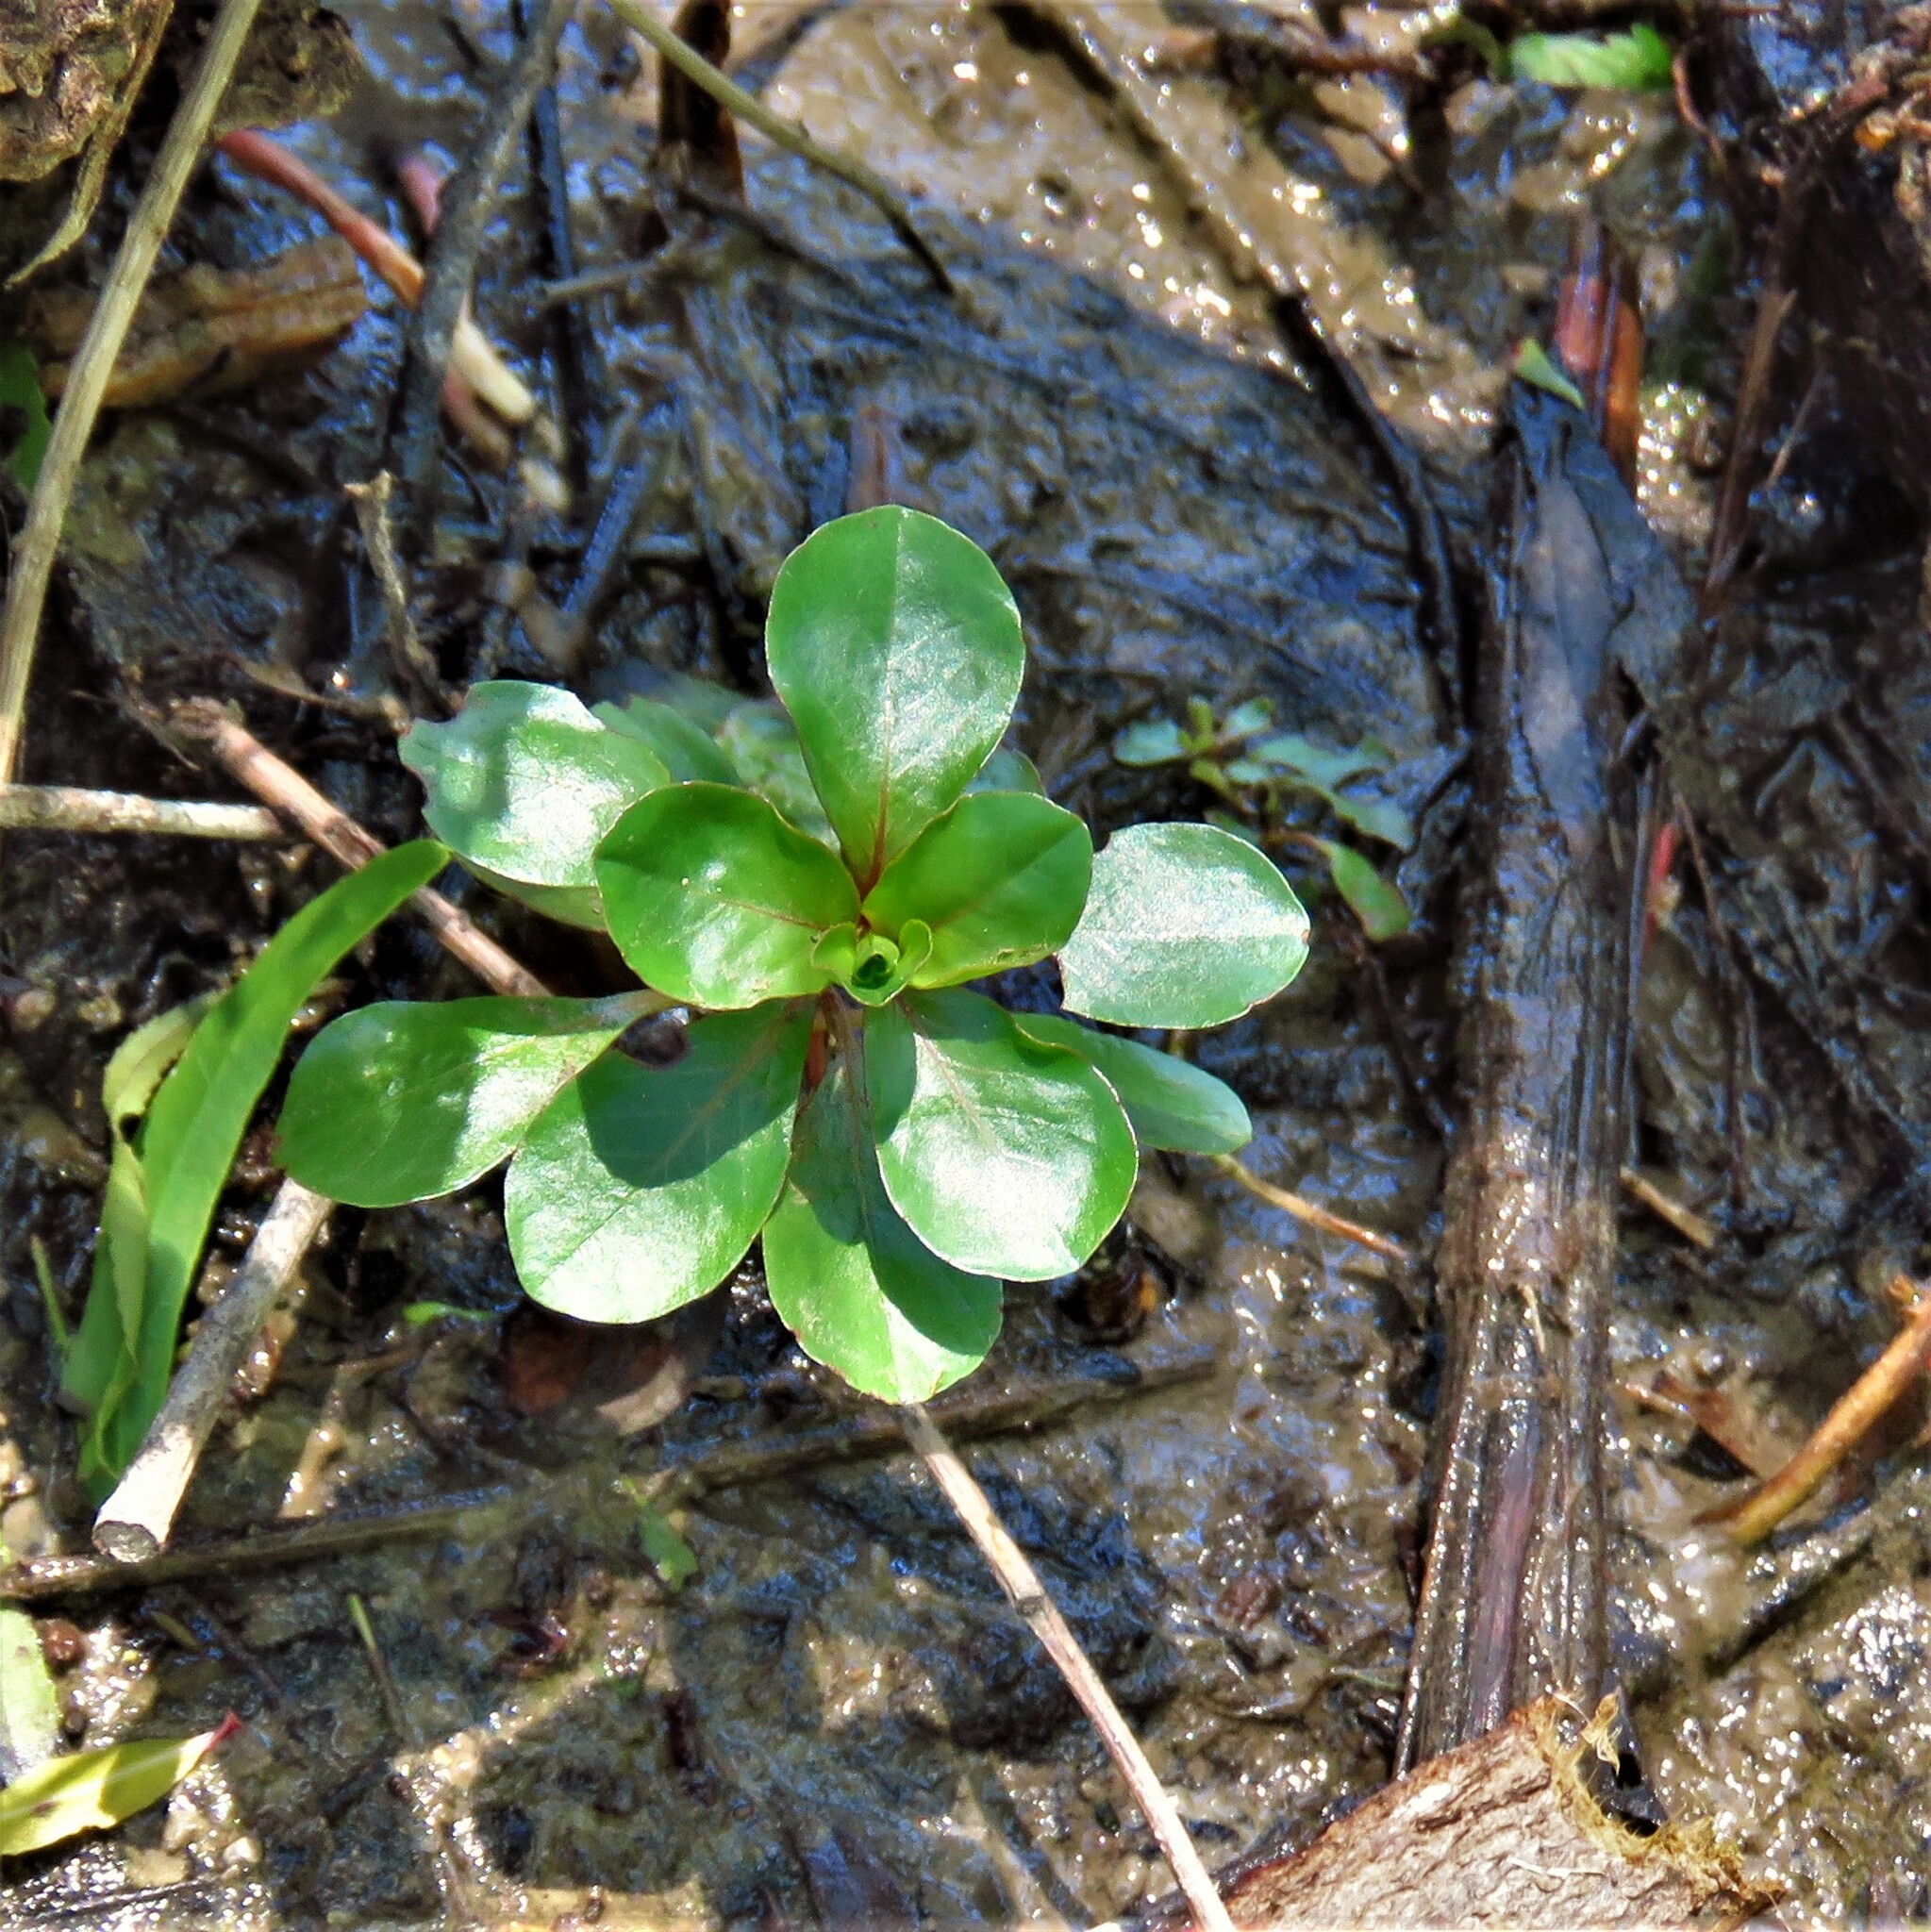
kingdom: Plantae
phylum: Tracheophyta
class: Magnoliopsida
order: Myrtales
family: Onagraceae
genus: Ludwigia
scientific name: Ludwigia peploides
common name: Floating primrose-willow
